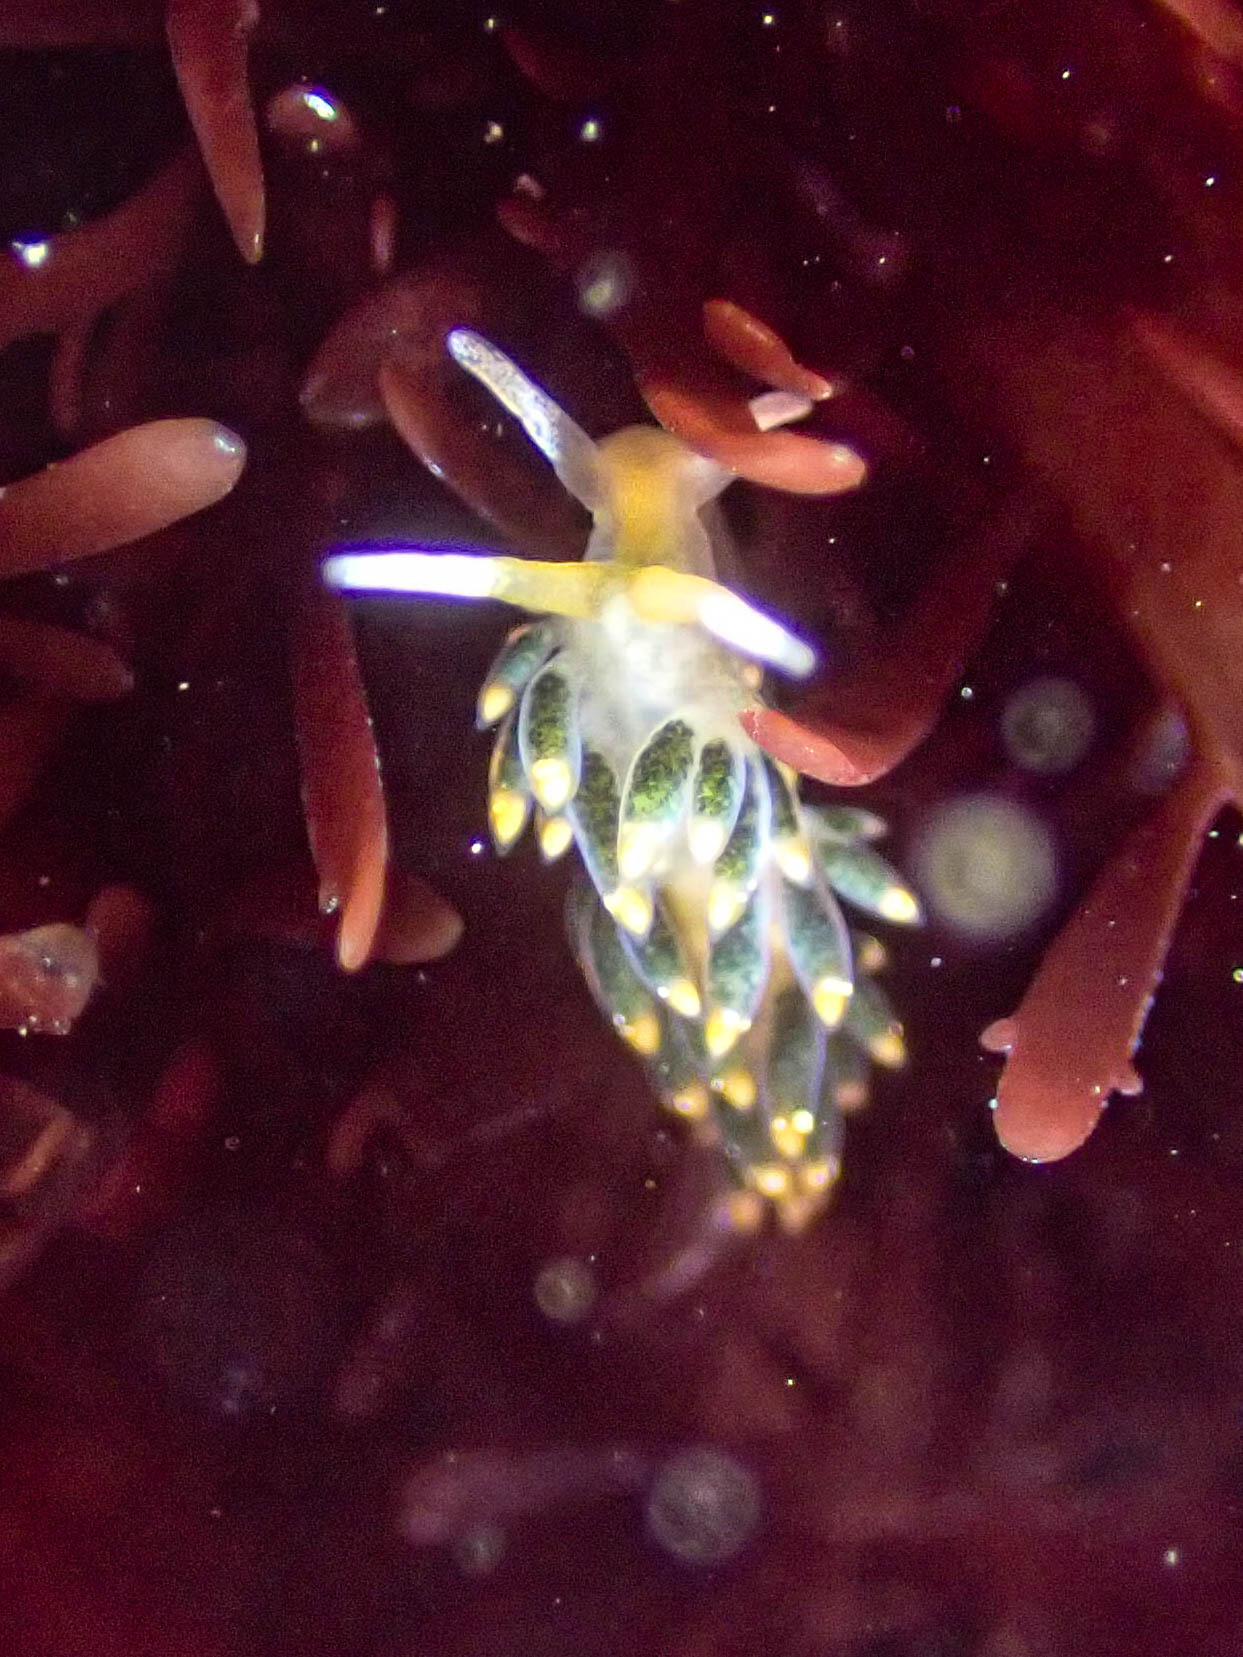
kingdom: Animalia
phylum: Mollusca
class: Gastropoda
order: Nudibranchia
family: Trinchesiidae
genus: Diaphoreolis
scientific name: Diaphoreolis flavovulta
